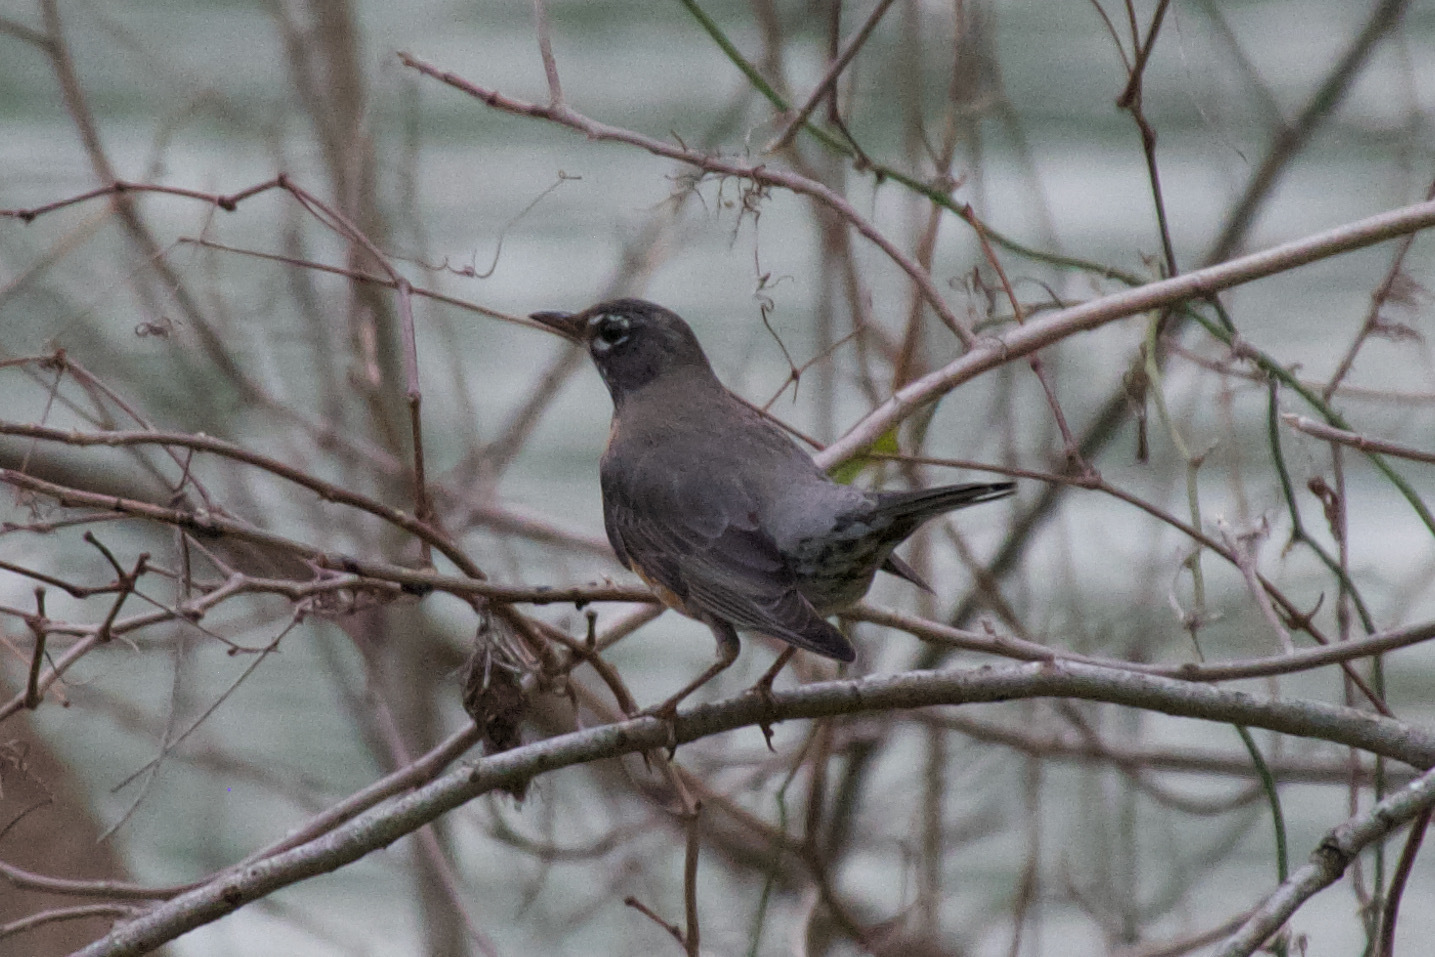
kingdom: Animalia
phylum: Chordata
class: Aves
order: Passeriformes
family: Turdidae
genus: Turdus
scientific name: Turdus migratorius
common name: American robin
